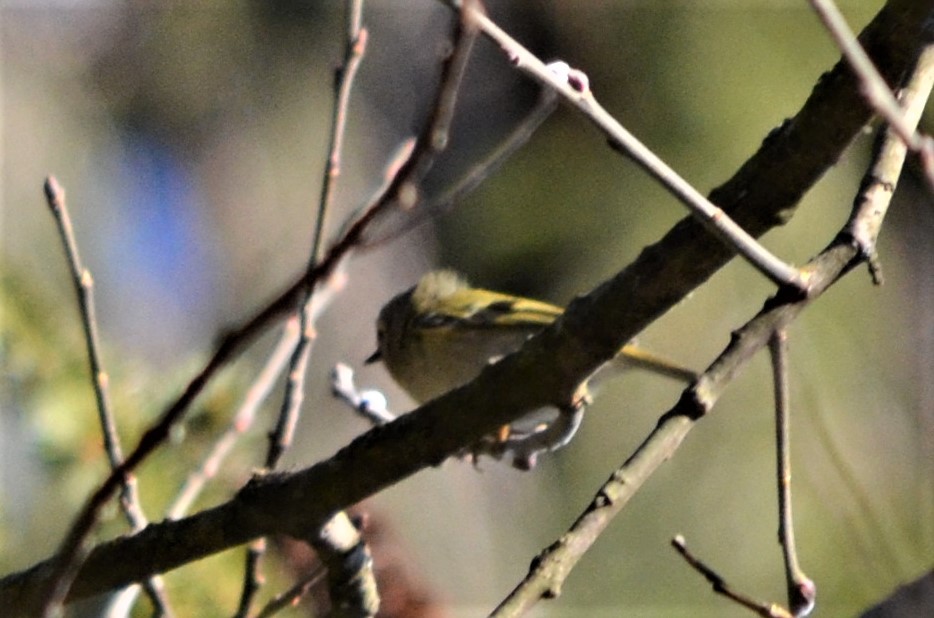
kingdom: Animalia
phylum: Chordata
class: Aves
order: Passeriformes
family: Regulidae
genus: Regulus
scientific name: Regulus regulus
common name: Goldcrest
